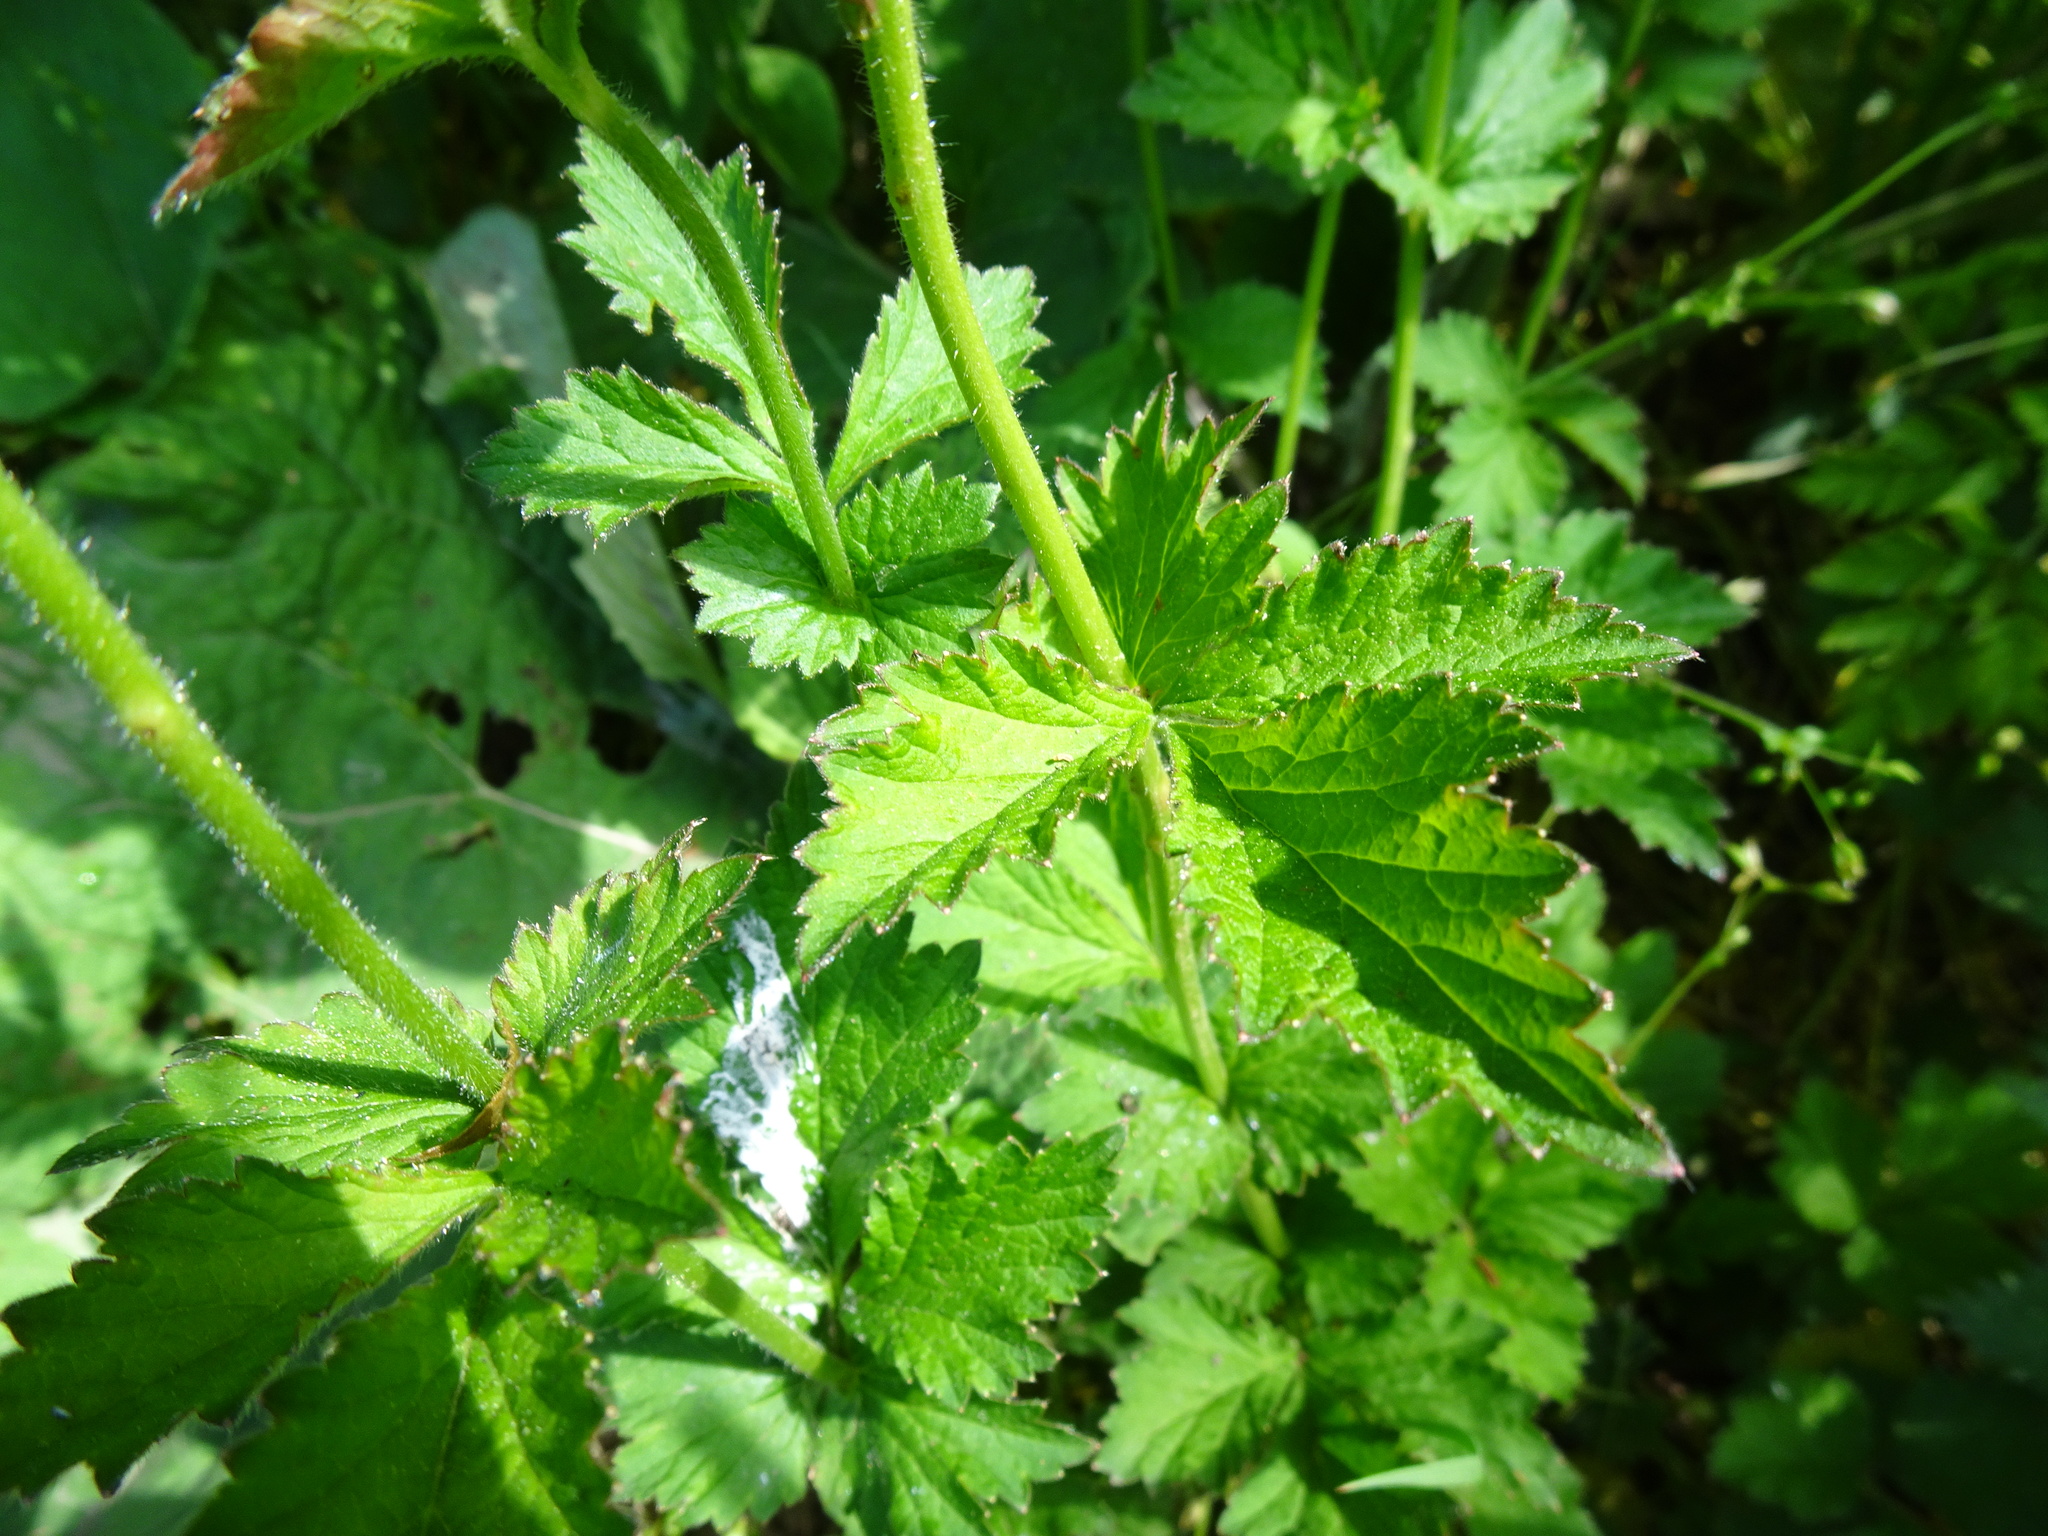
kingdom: Plantae
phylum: Tracheophyta
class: Magnoliopsida
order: Rosales
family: Rosaceae
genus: Geum
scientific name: Geum urbanum
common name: Wood avens
